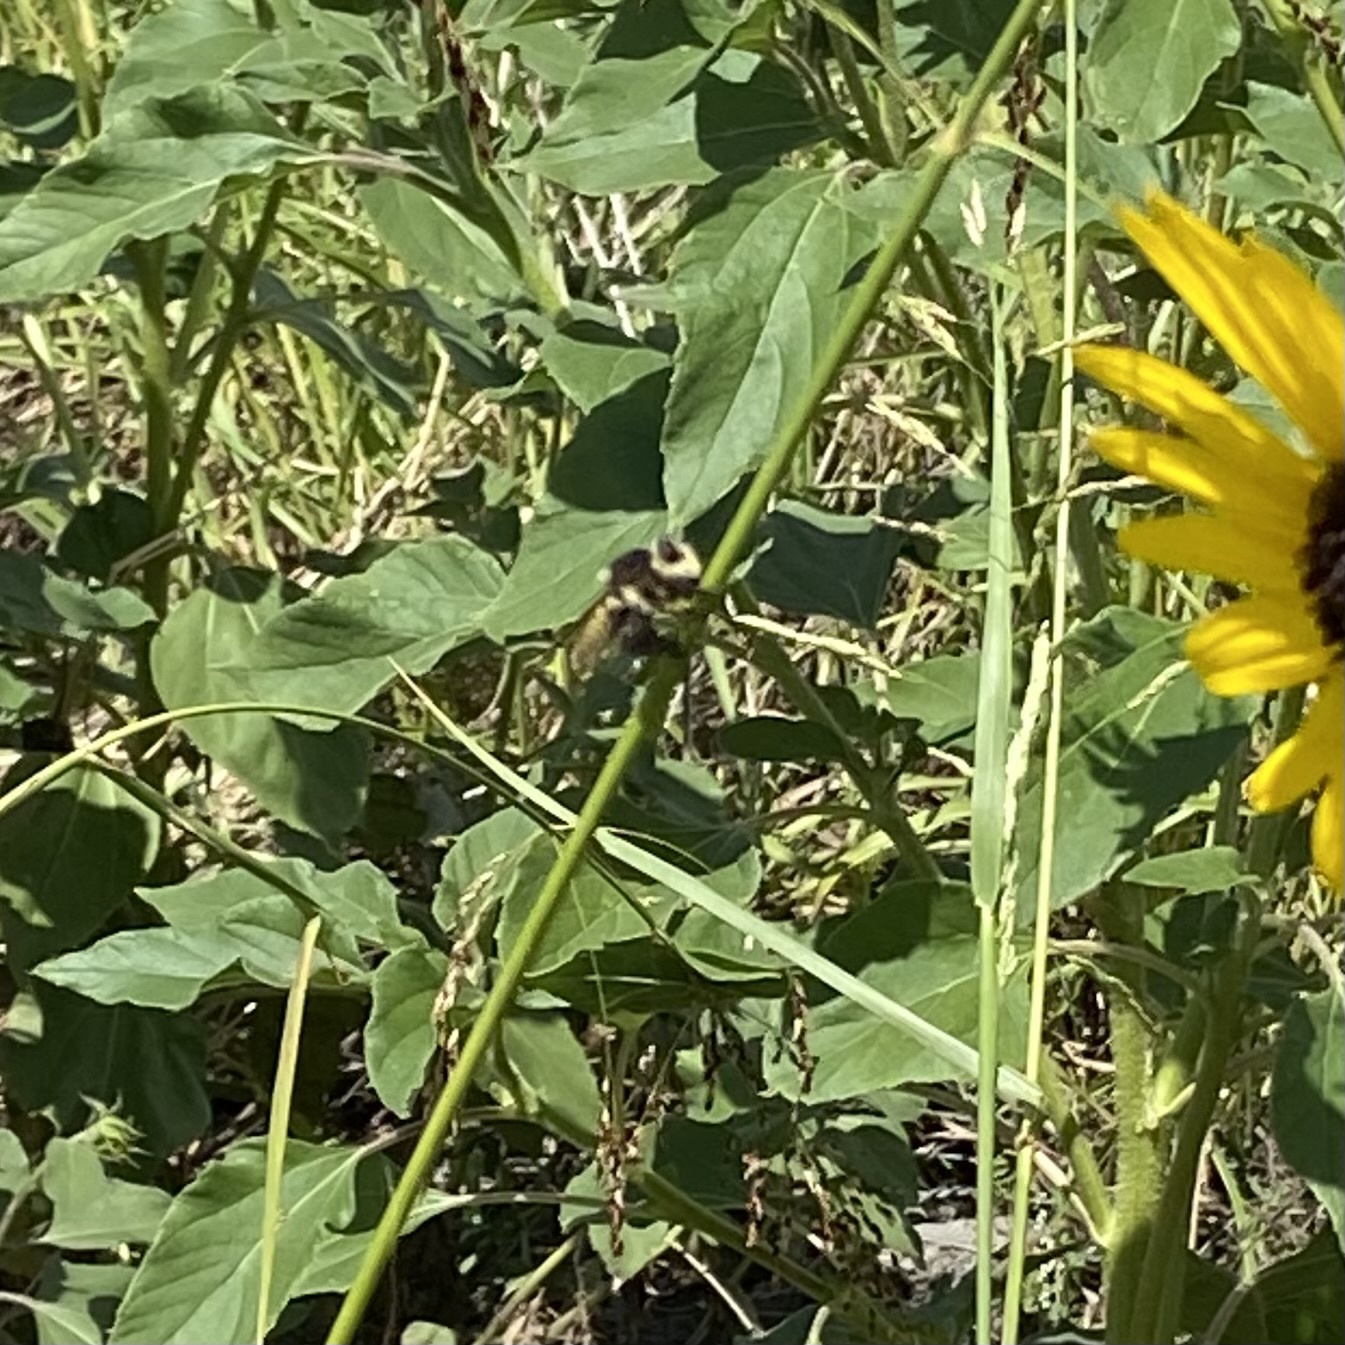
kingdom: Animalia
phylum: Arthropoda
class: Insecta
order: Diptera
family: Asilidae
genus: Mallophora
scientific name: Mallophora fautrix
